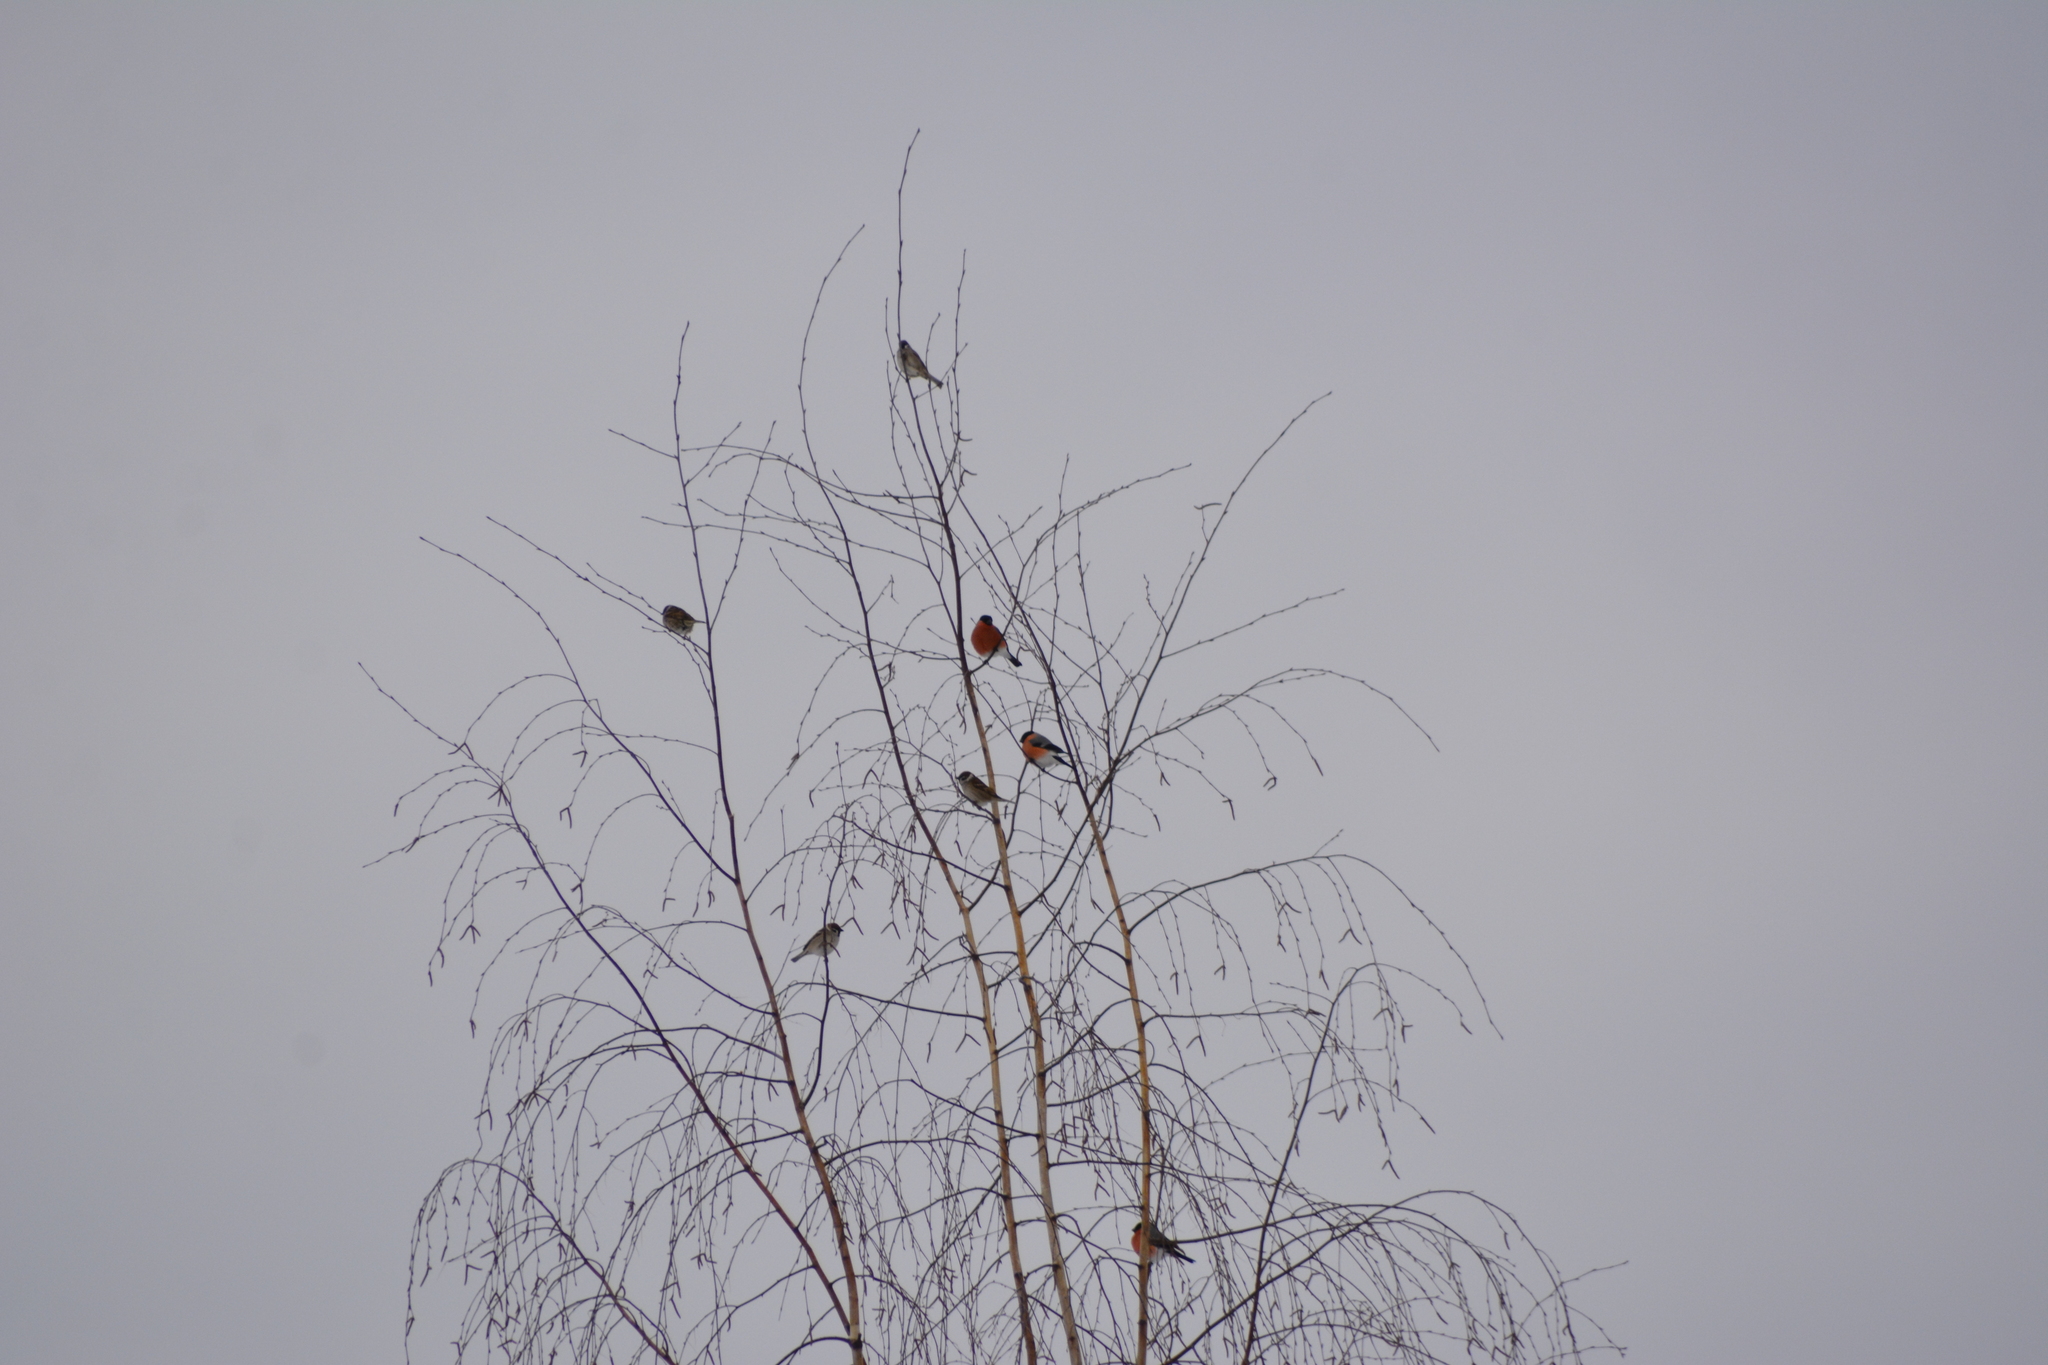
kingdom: Animalia
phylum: Chordata
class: Aves
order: Passeriformes
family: Fringillidae
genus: Pyrrhula
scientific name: Pyrrhula pyrrhula
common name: Eurasian bullfinch
